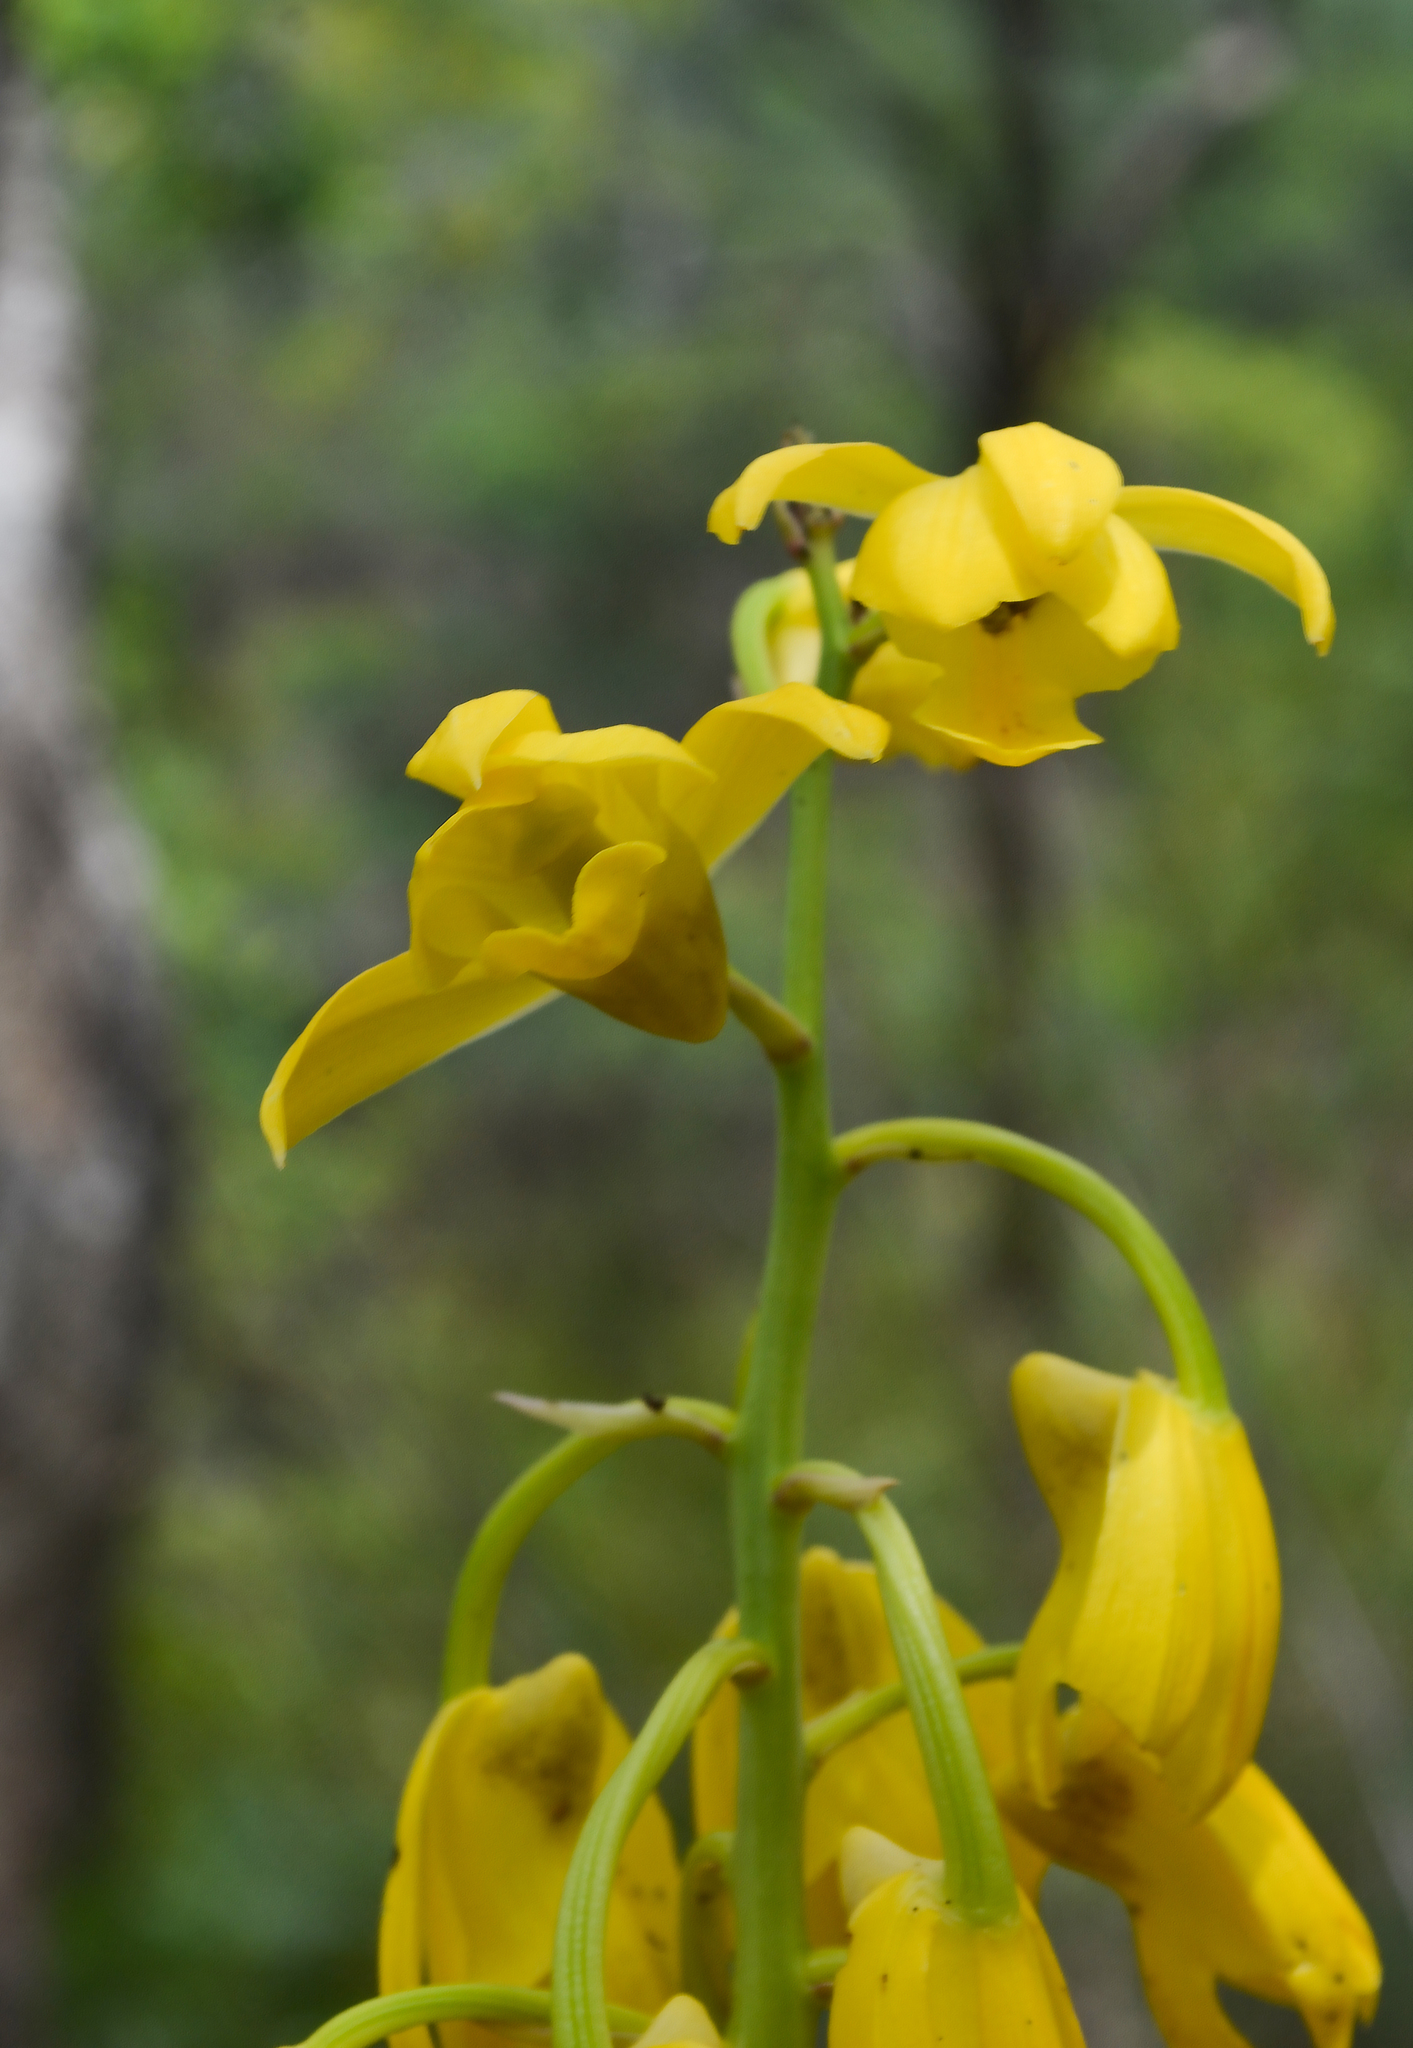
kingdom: Plantae
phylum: Tracheophyta
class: Liliopsida
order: Asparagales
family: Orchidaceae
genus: Eulophia
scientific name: Eulophia flava
